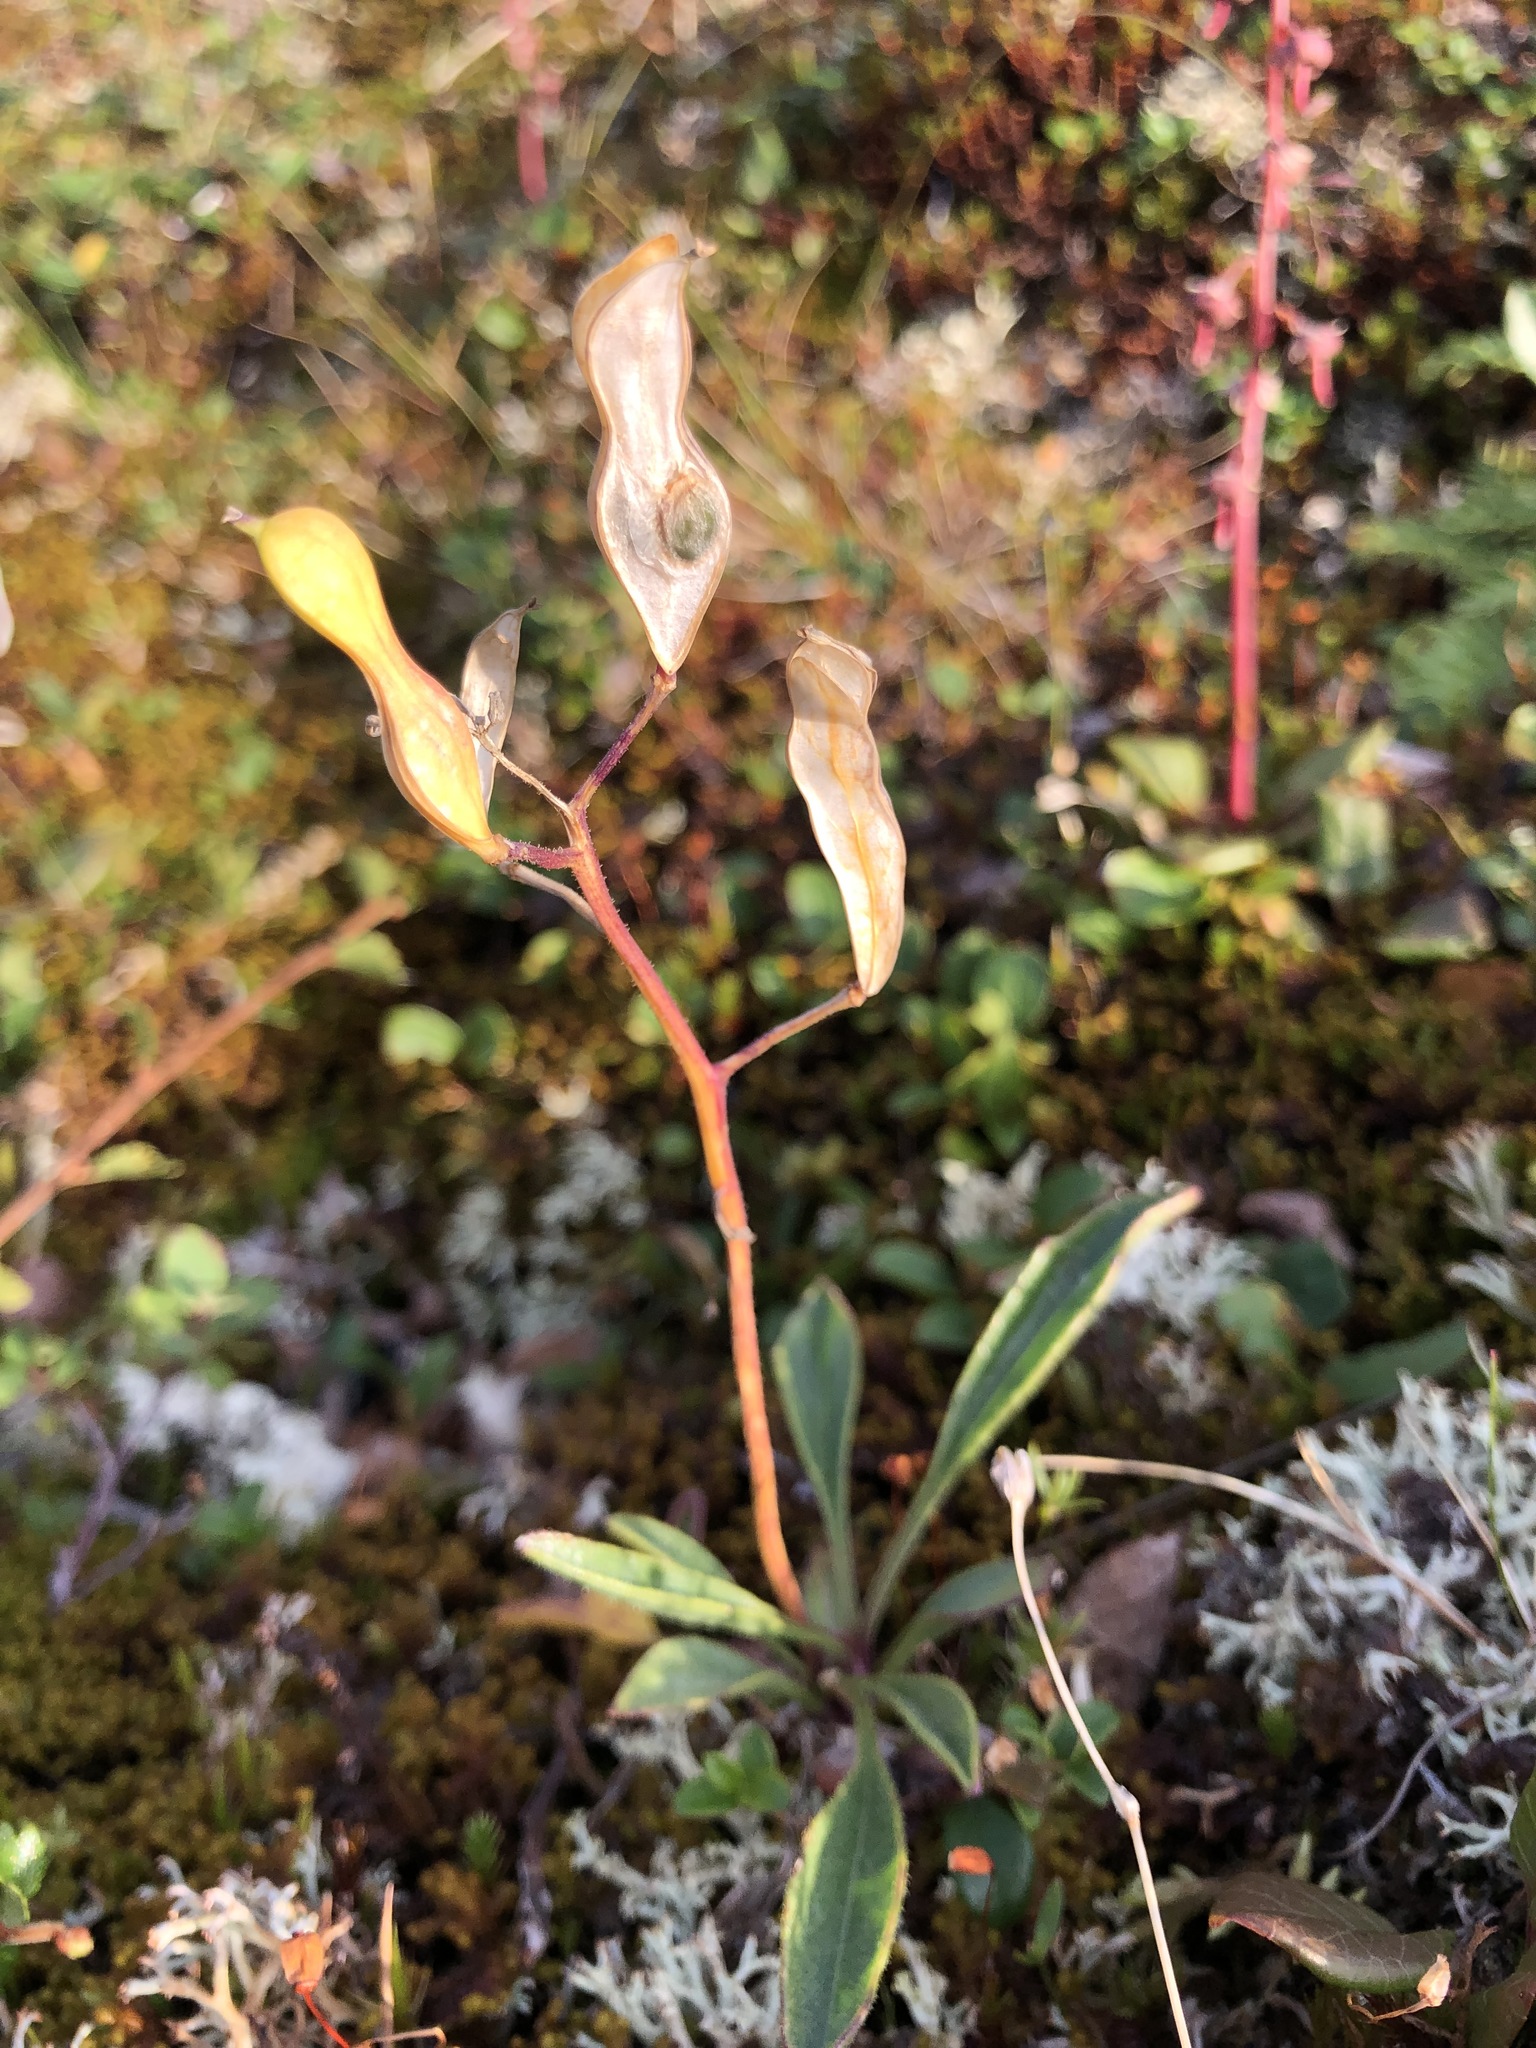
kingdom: Plantae
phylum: Tracheophyta
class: Magnoliopsida
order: Brassicales
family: Brassicaceae
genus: Parrya
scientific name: Parrya nudicaulis
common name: Naked-stemmed false wallflower
